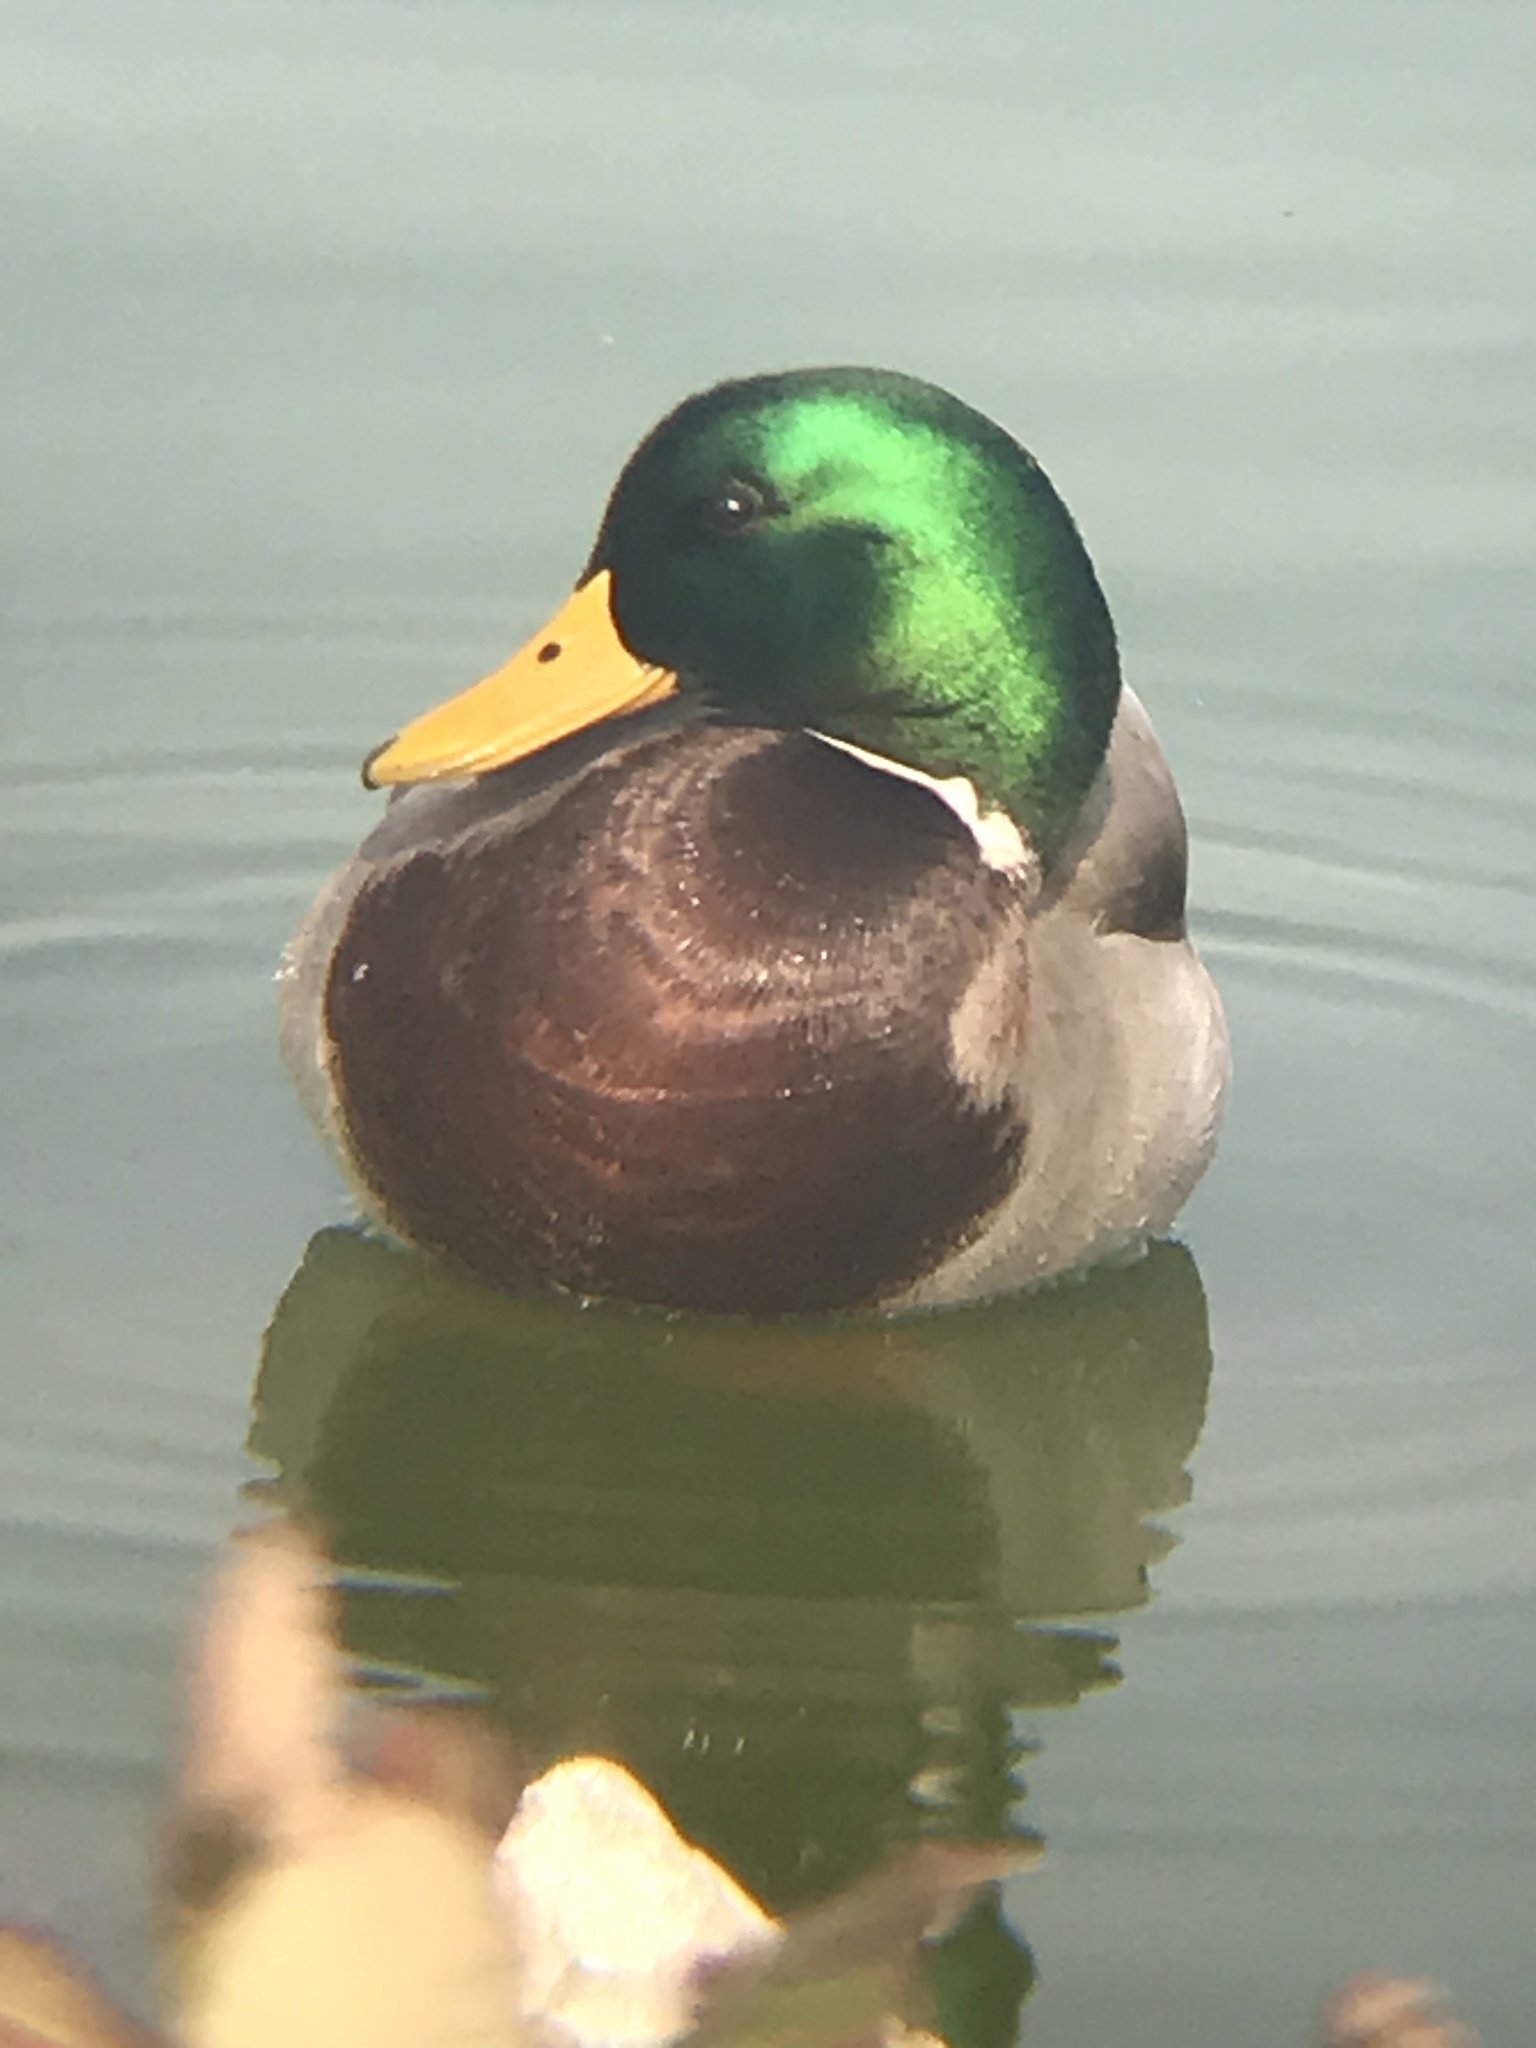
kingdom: Animalia
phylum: Chordata
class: Aves
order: Anseriformes
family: Anatidae
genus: Anas
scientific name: Anas platyrhynchos
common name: Mallard
